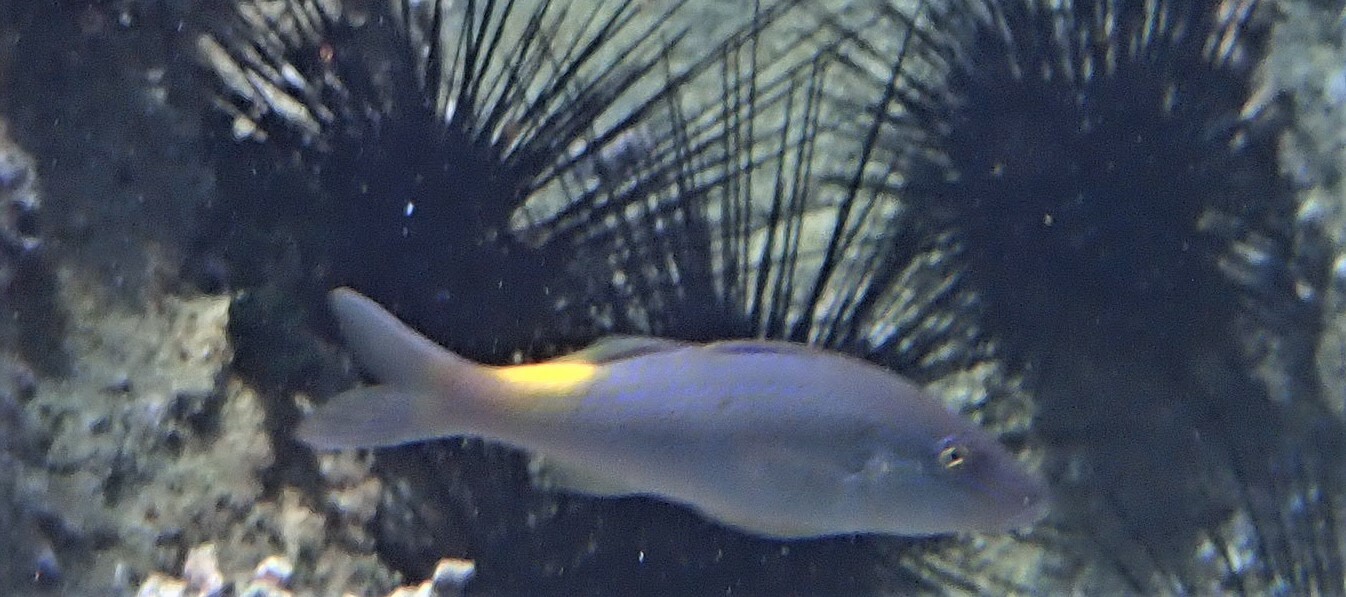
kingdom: Animalia
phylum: Chordata
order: Perciformes
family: Mullidae
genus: Parupeneus
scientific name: Parupeneus cyclostomus
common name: Goldsaddle goatfish
